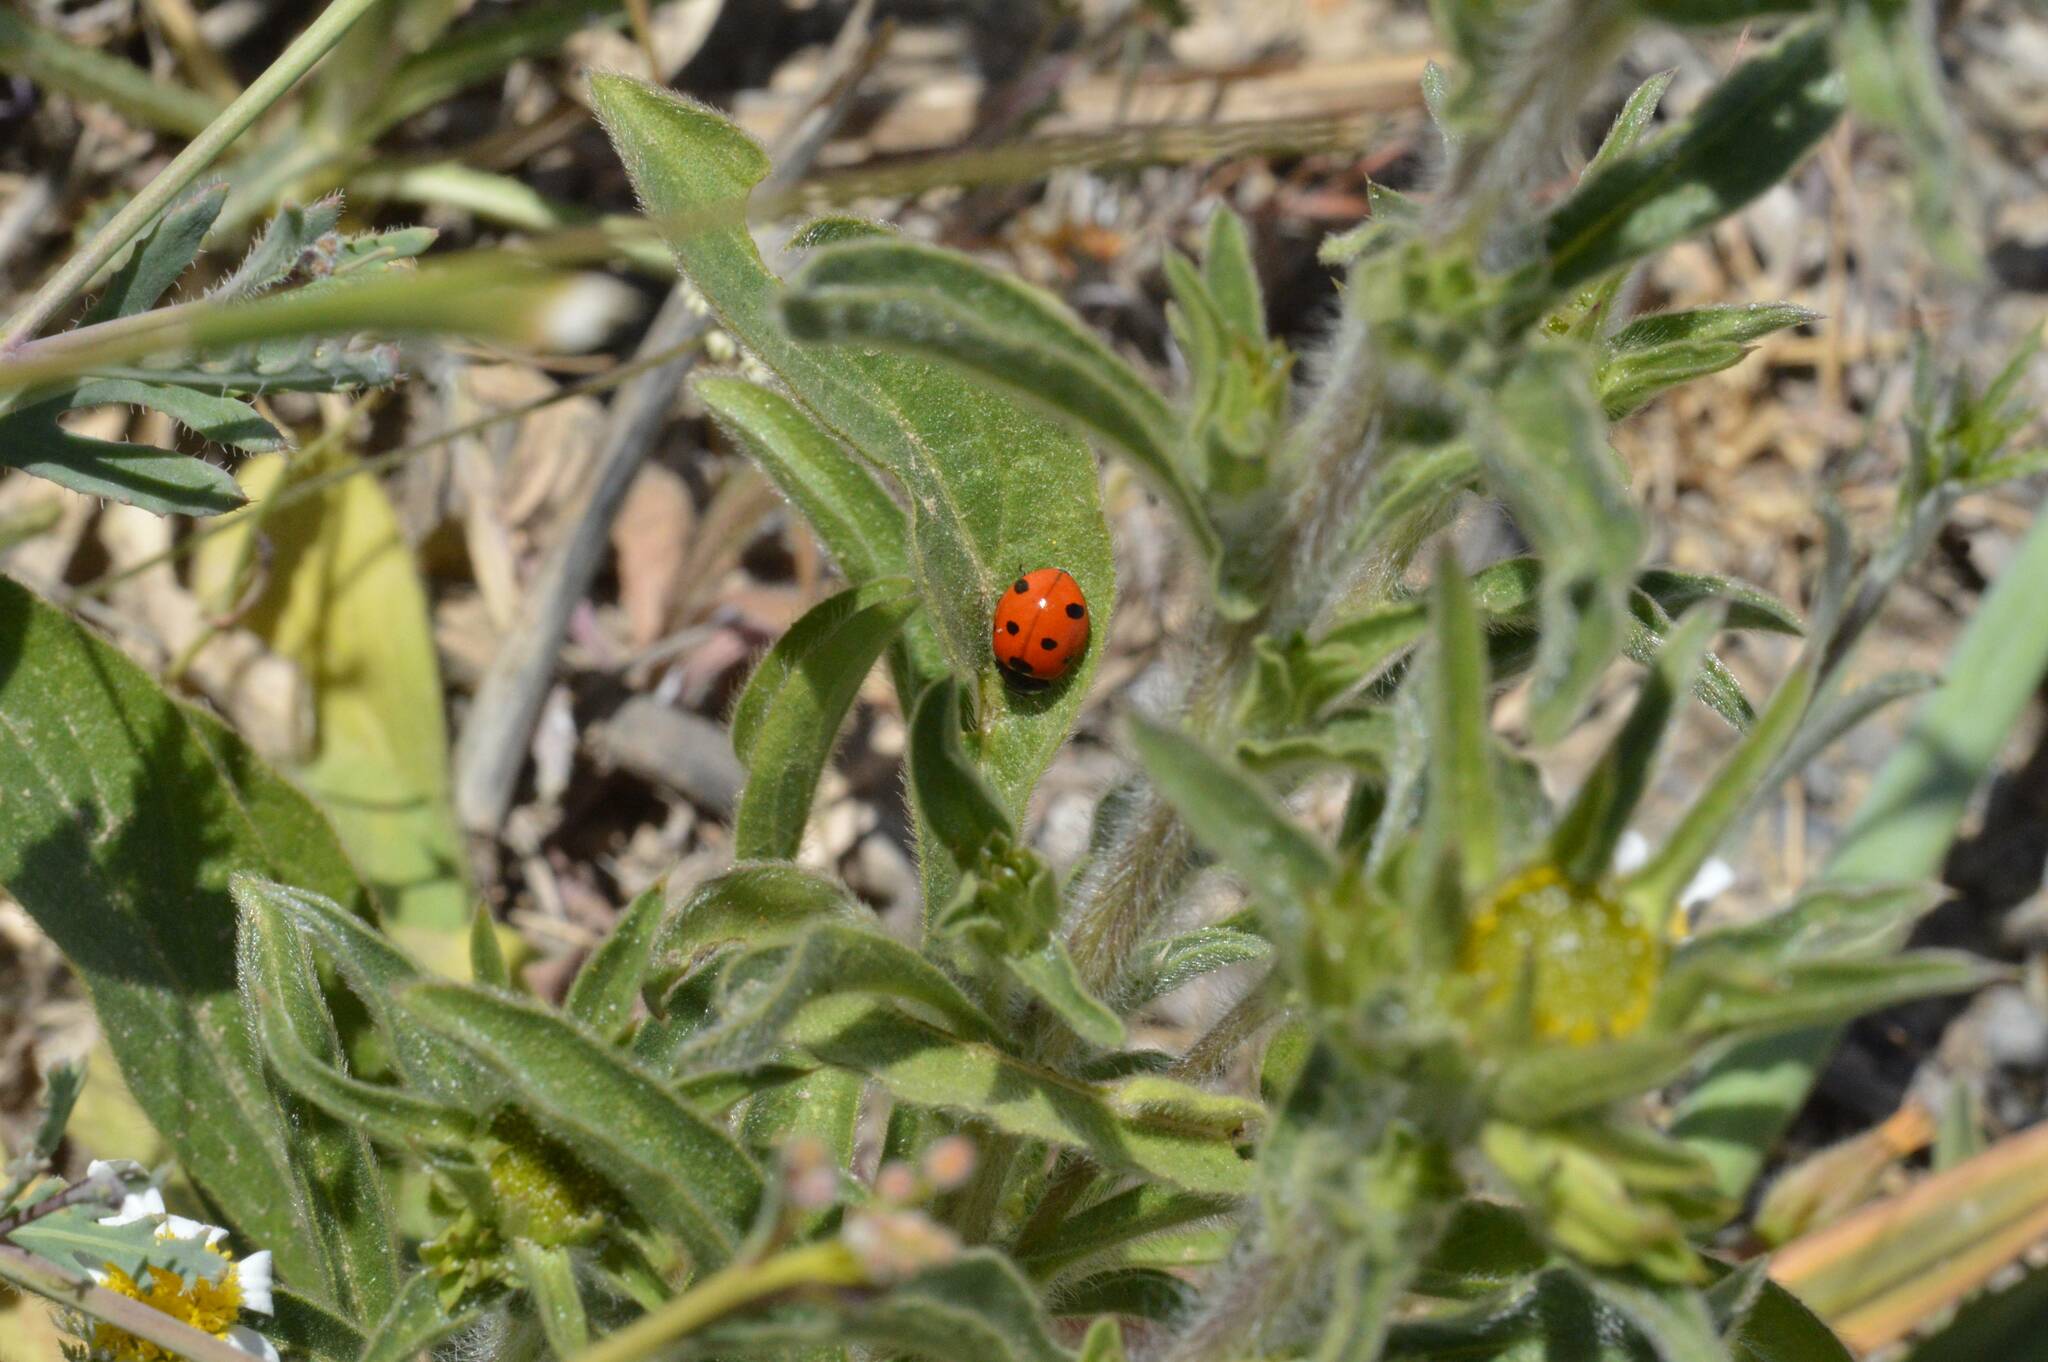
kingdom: Animalia
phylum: Arthropoda
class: Insecta
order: Coleoptera
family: Coccinellidae
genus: Coccinella
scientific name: Coccinella algerica
